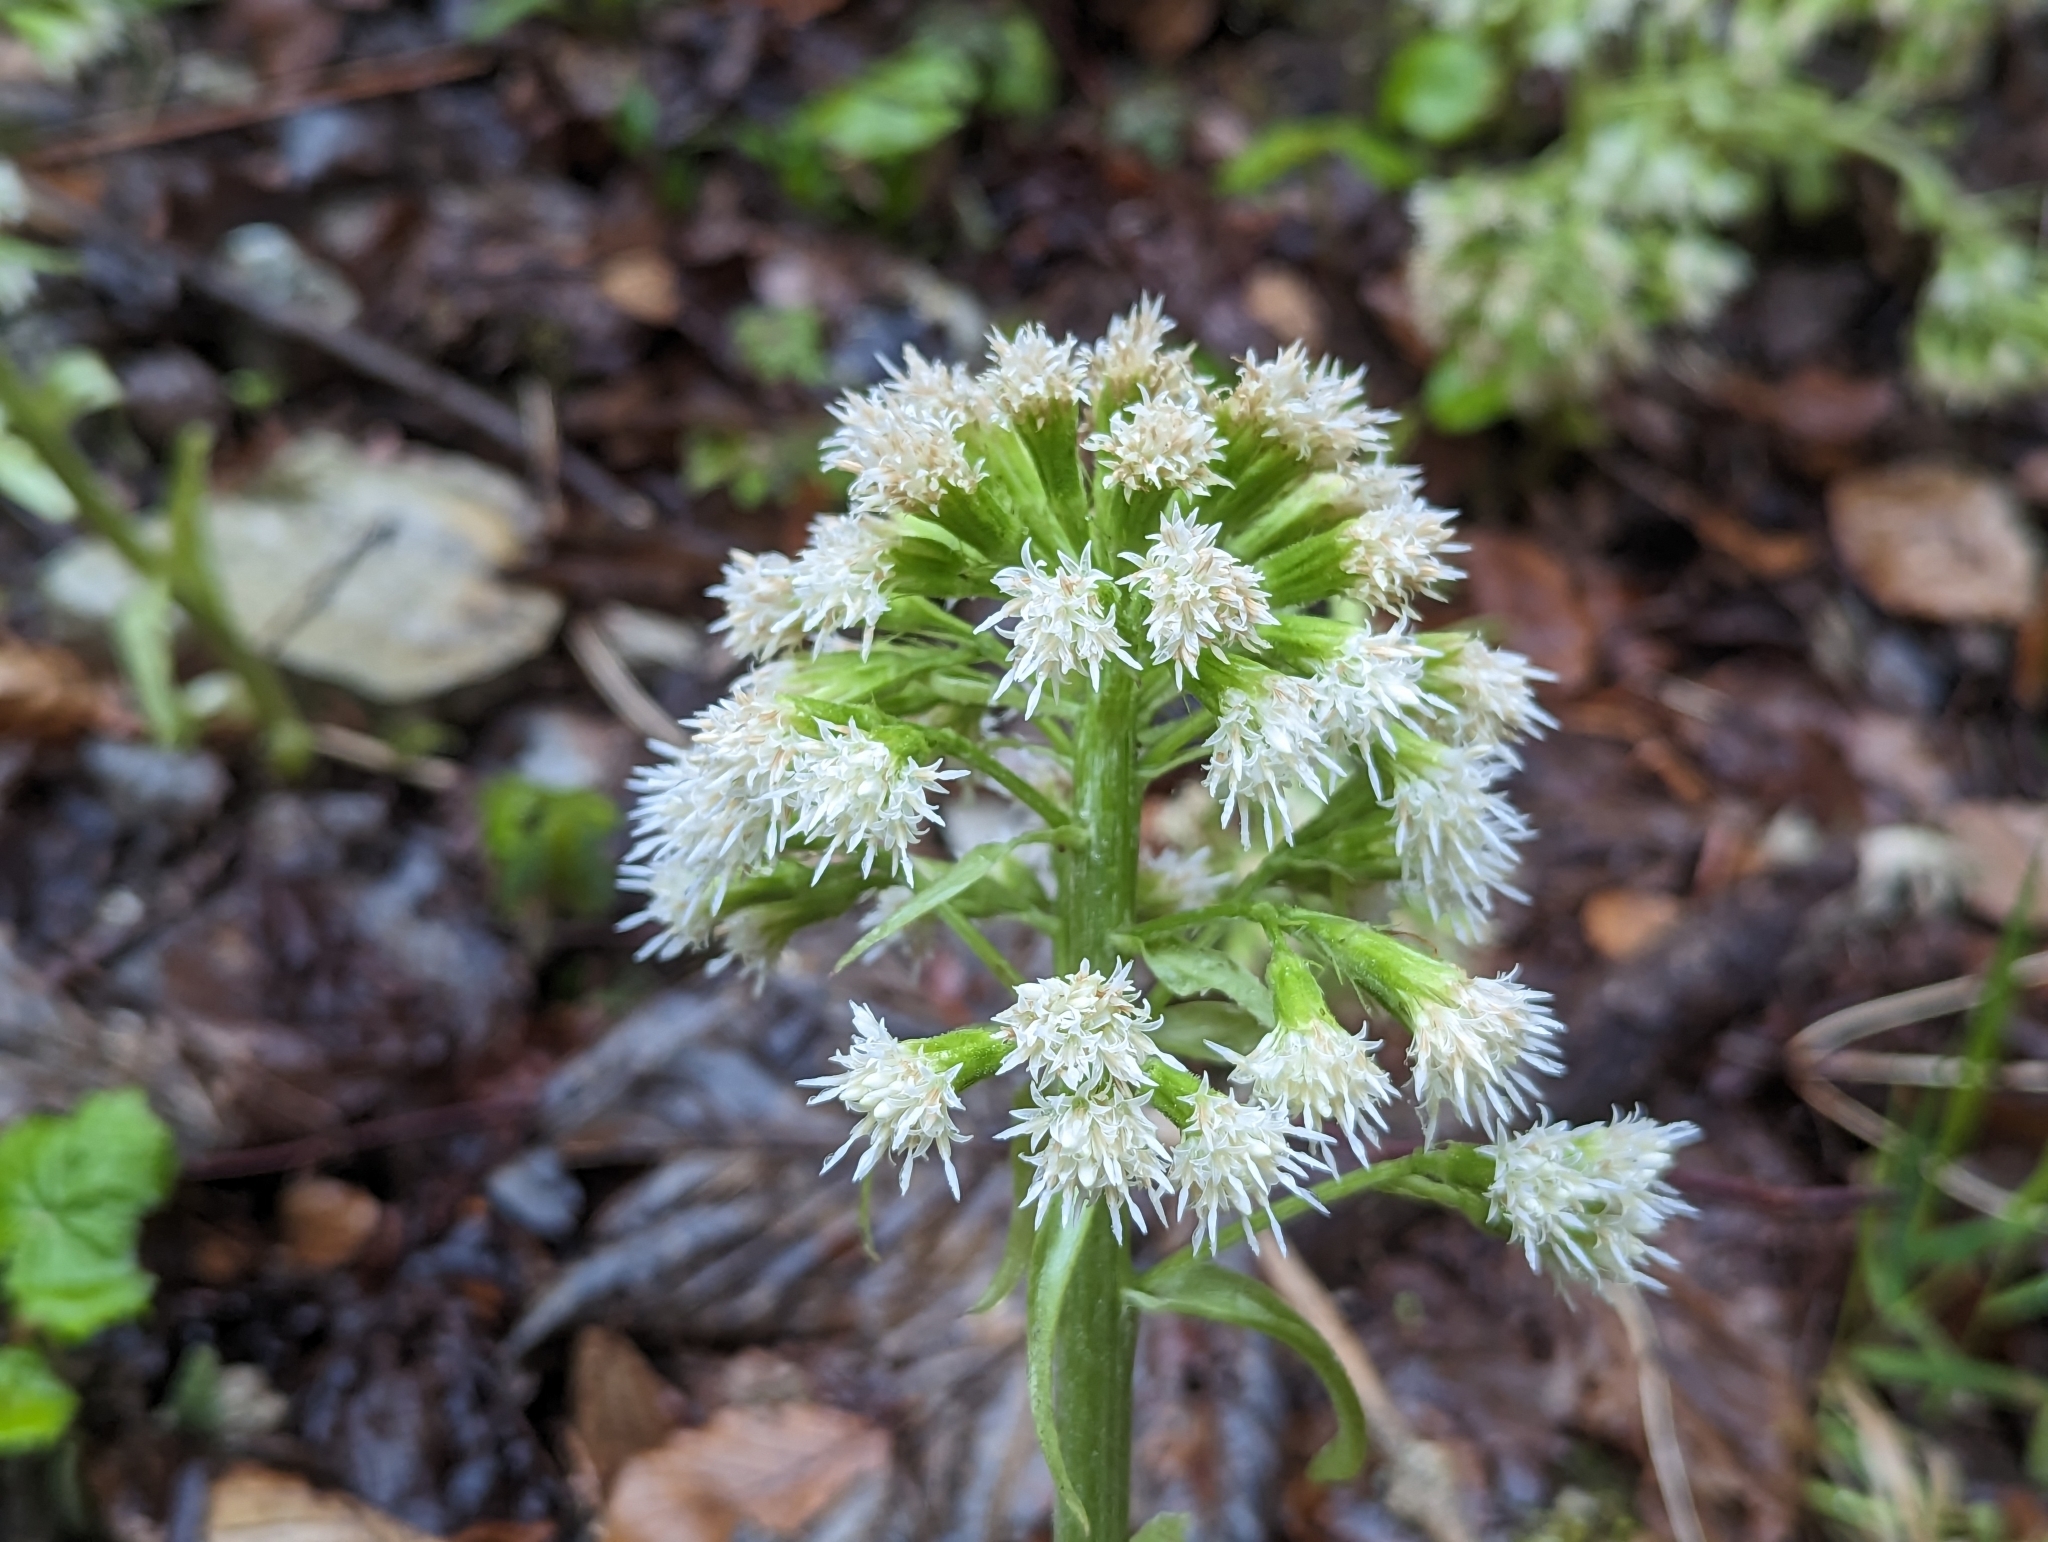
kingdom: Plantae
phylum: Tracheophyta
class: Magnoliopsida
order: Asterales
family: Asteraceae
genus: Petasites
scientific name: Petasites albus
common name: White butterbur
